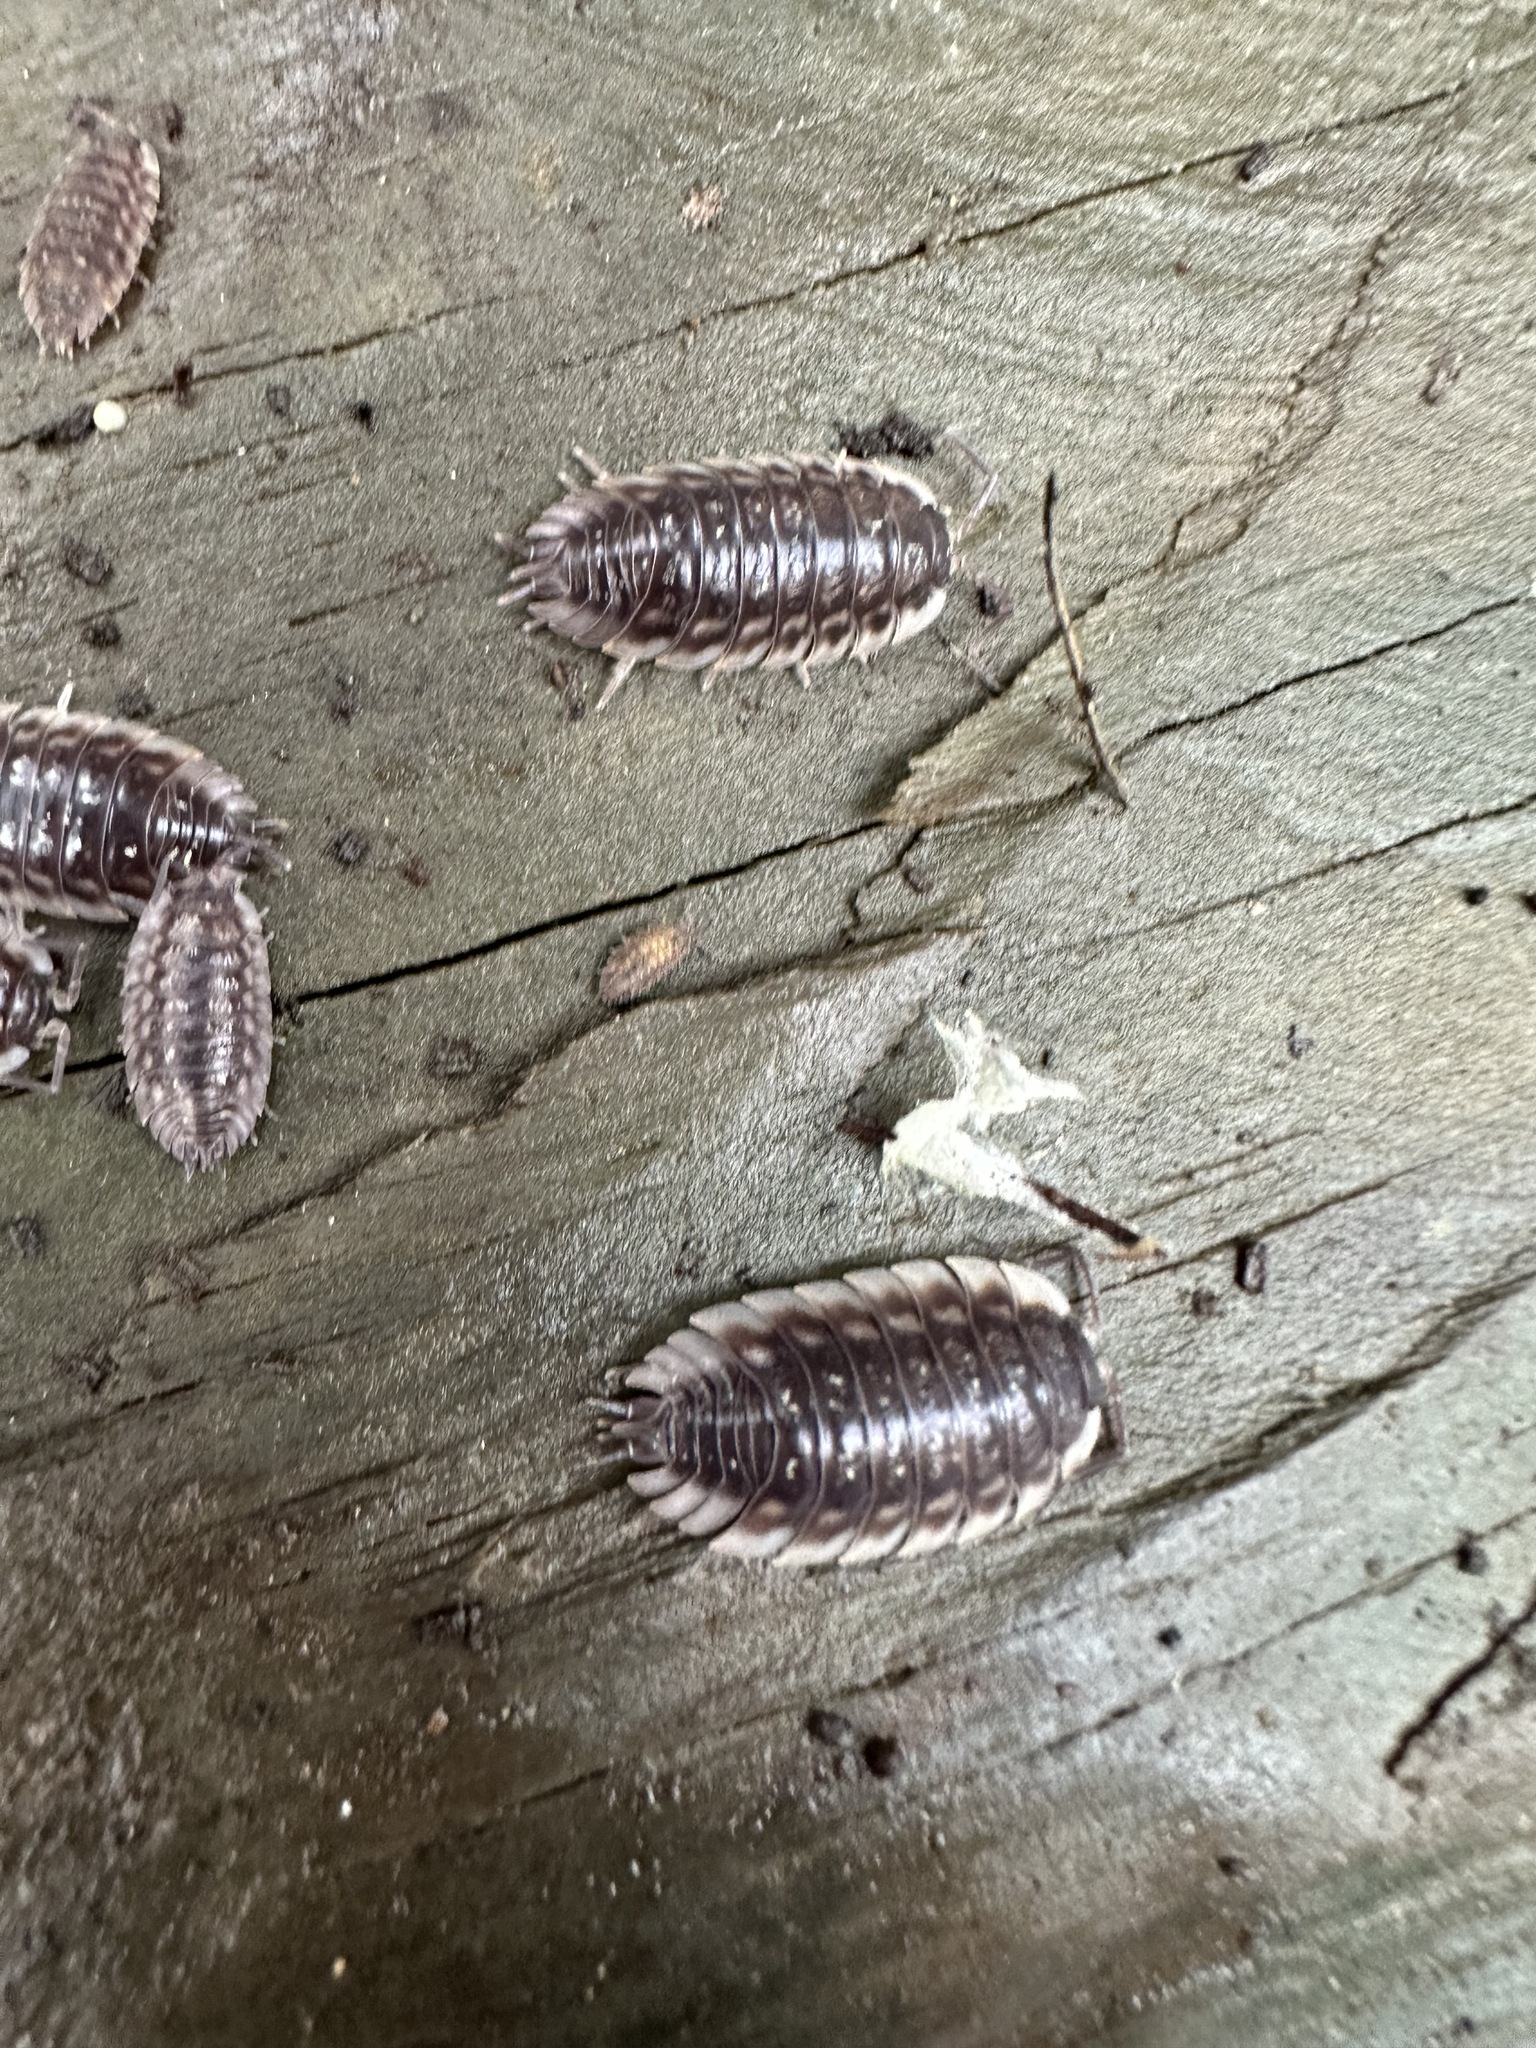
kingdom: Animalia
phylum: Arthropoda
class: Malacostraca
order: Isopoda
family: Oniscidae
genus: Oniscus
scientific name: Oniscus asellus
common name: Common shiny woodlouse
